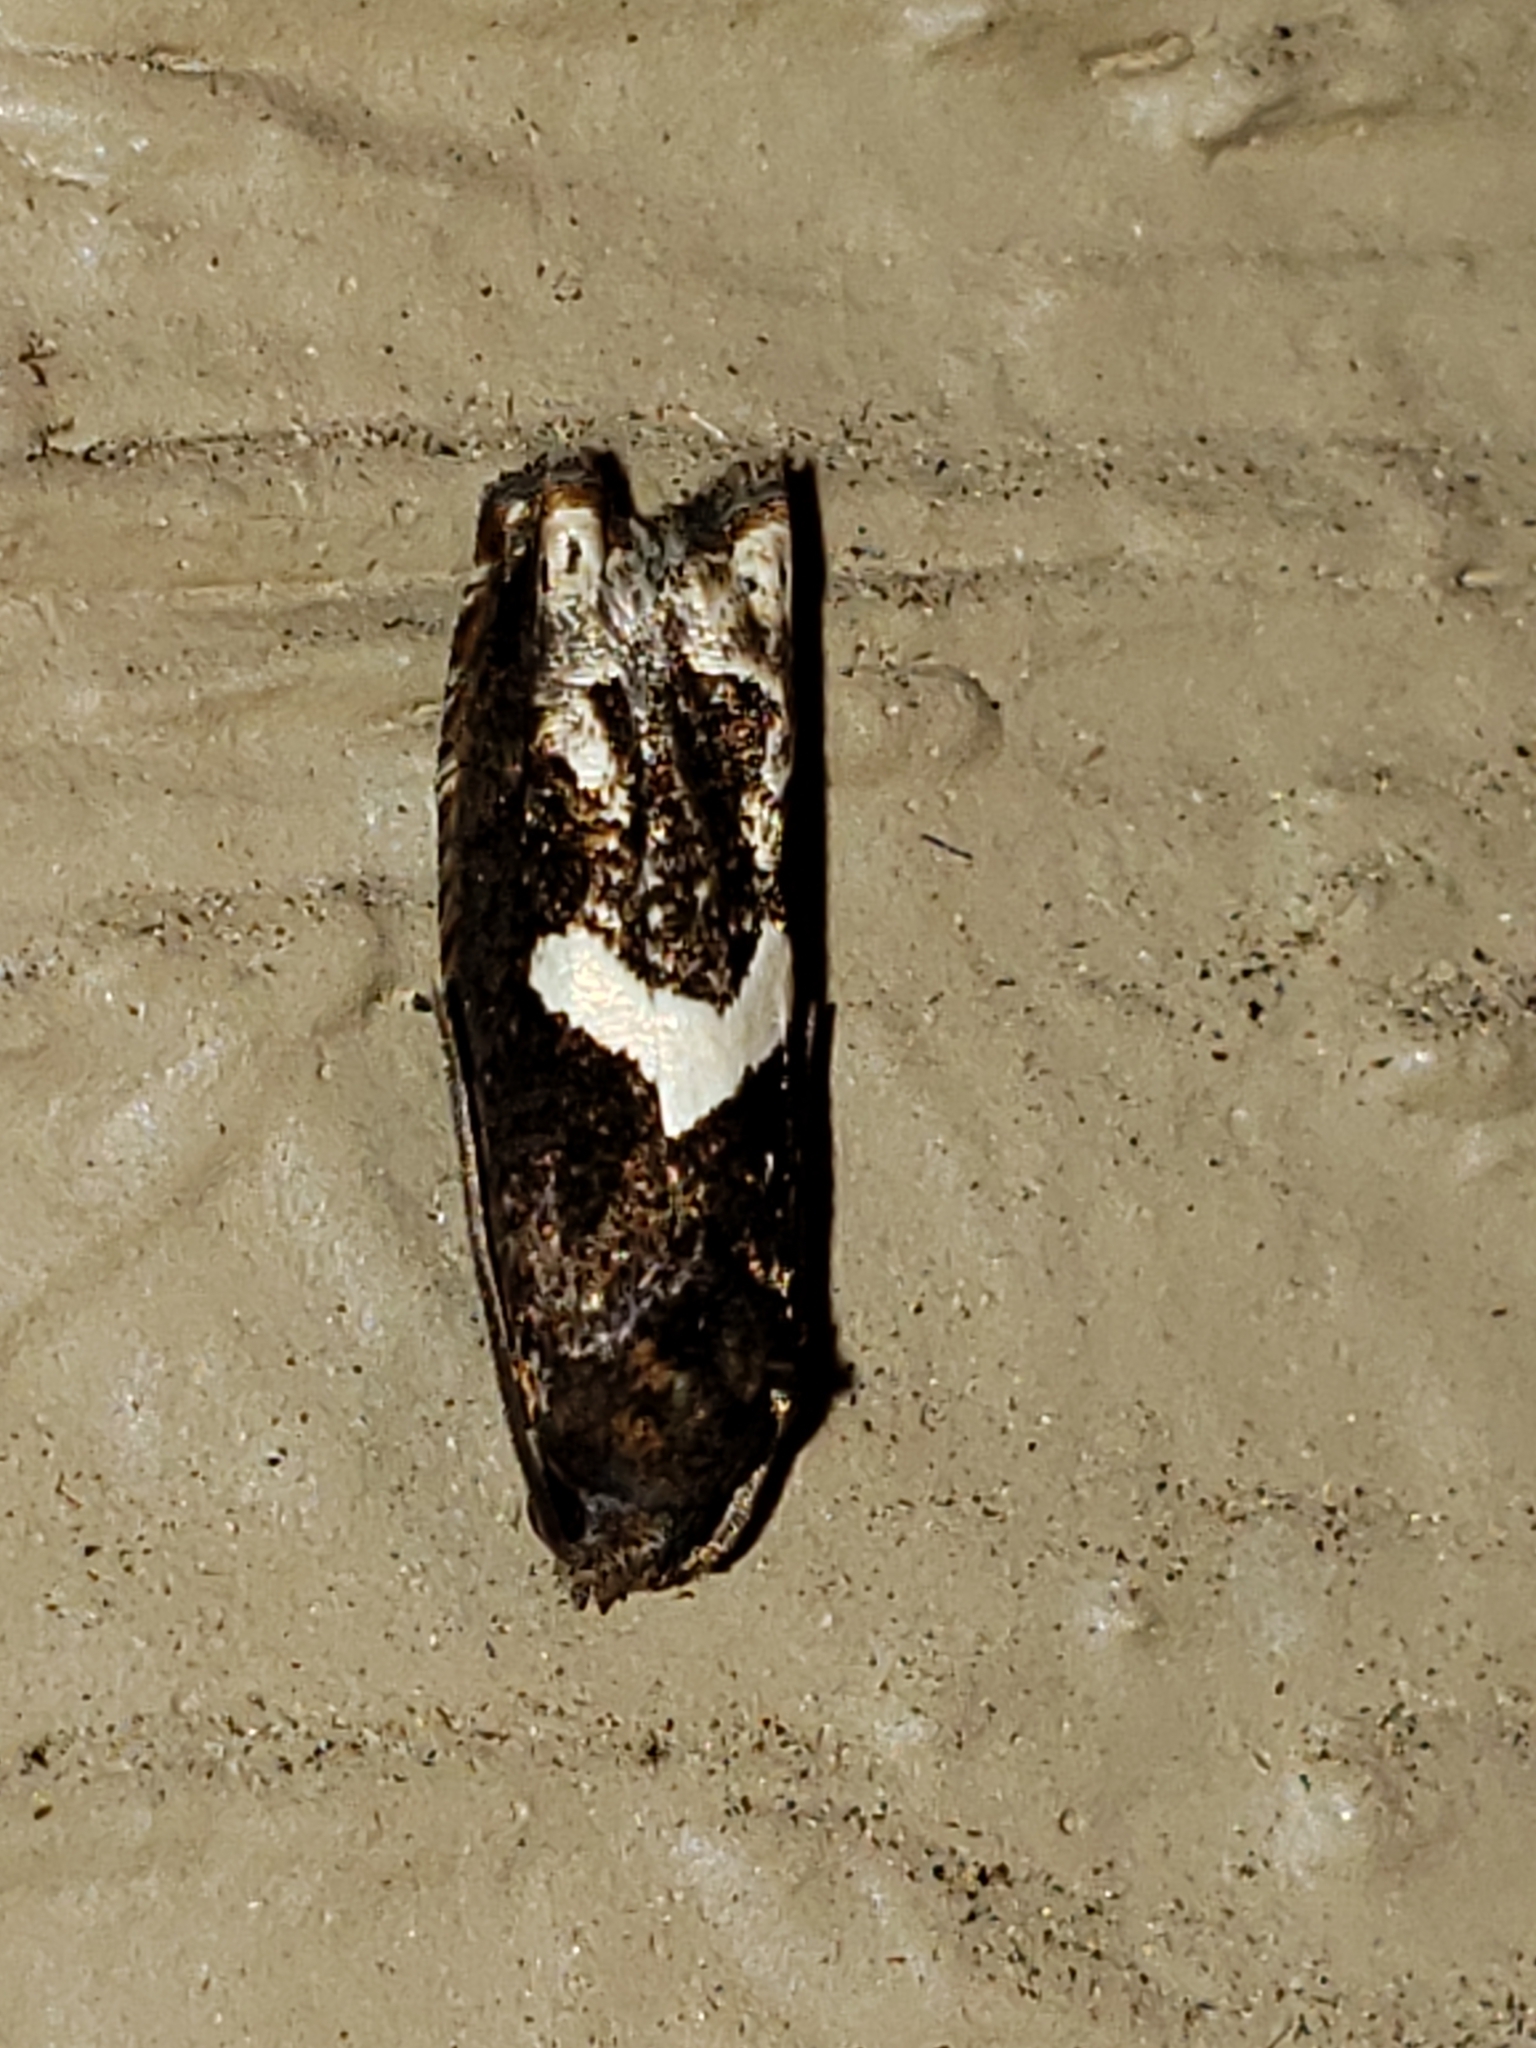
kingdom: Animalia
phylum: Arthropoda
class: Insecta
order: Lepidoptera
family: Tortricidae
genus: Epiblema
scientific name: Epiblema otiosana
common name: Bidens borer moth
